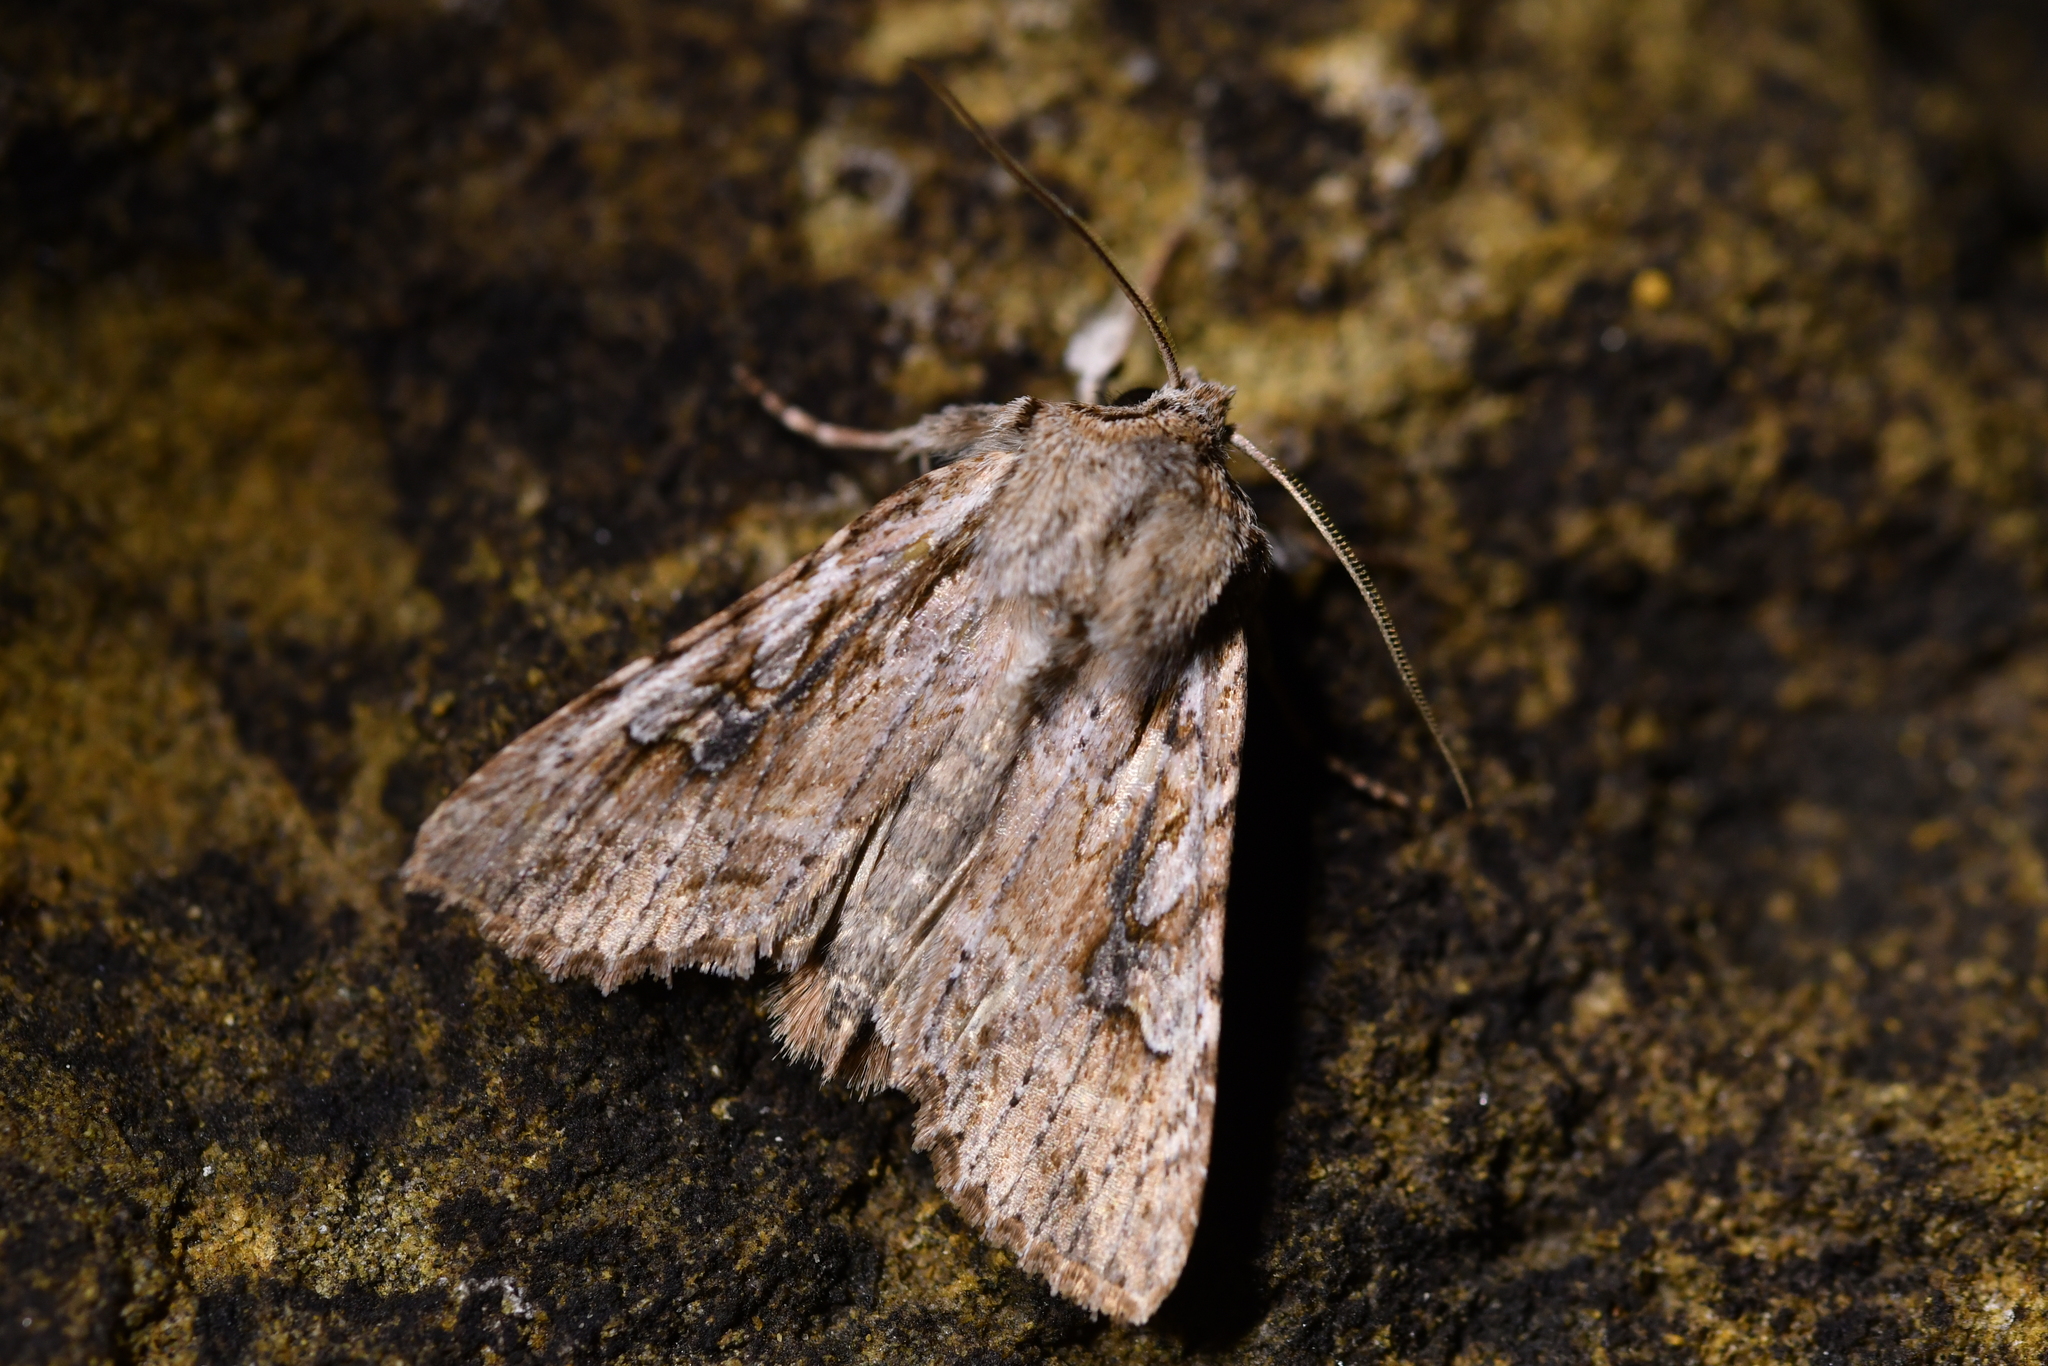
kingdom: Animalia
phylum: Arthropoda
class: Insecta
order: Lepidoptera
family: Noctuidae
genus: Ichneutica
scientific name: Ichneutica lindsayorum
